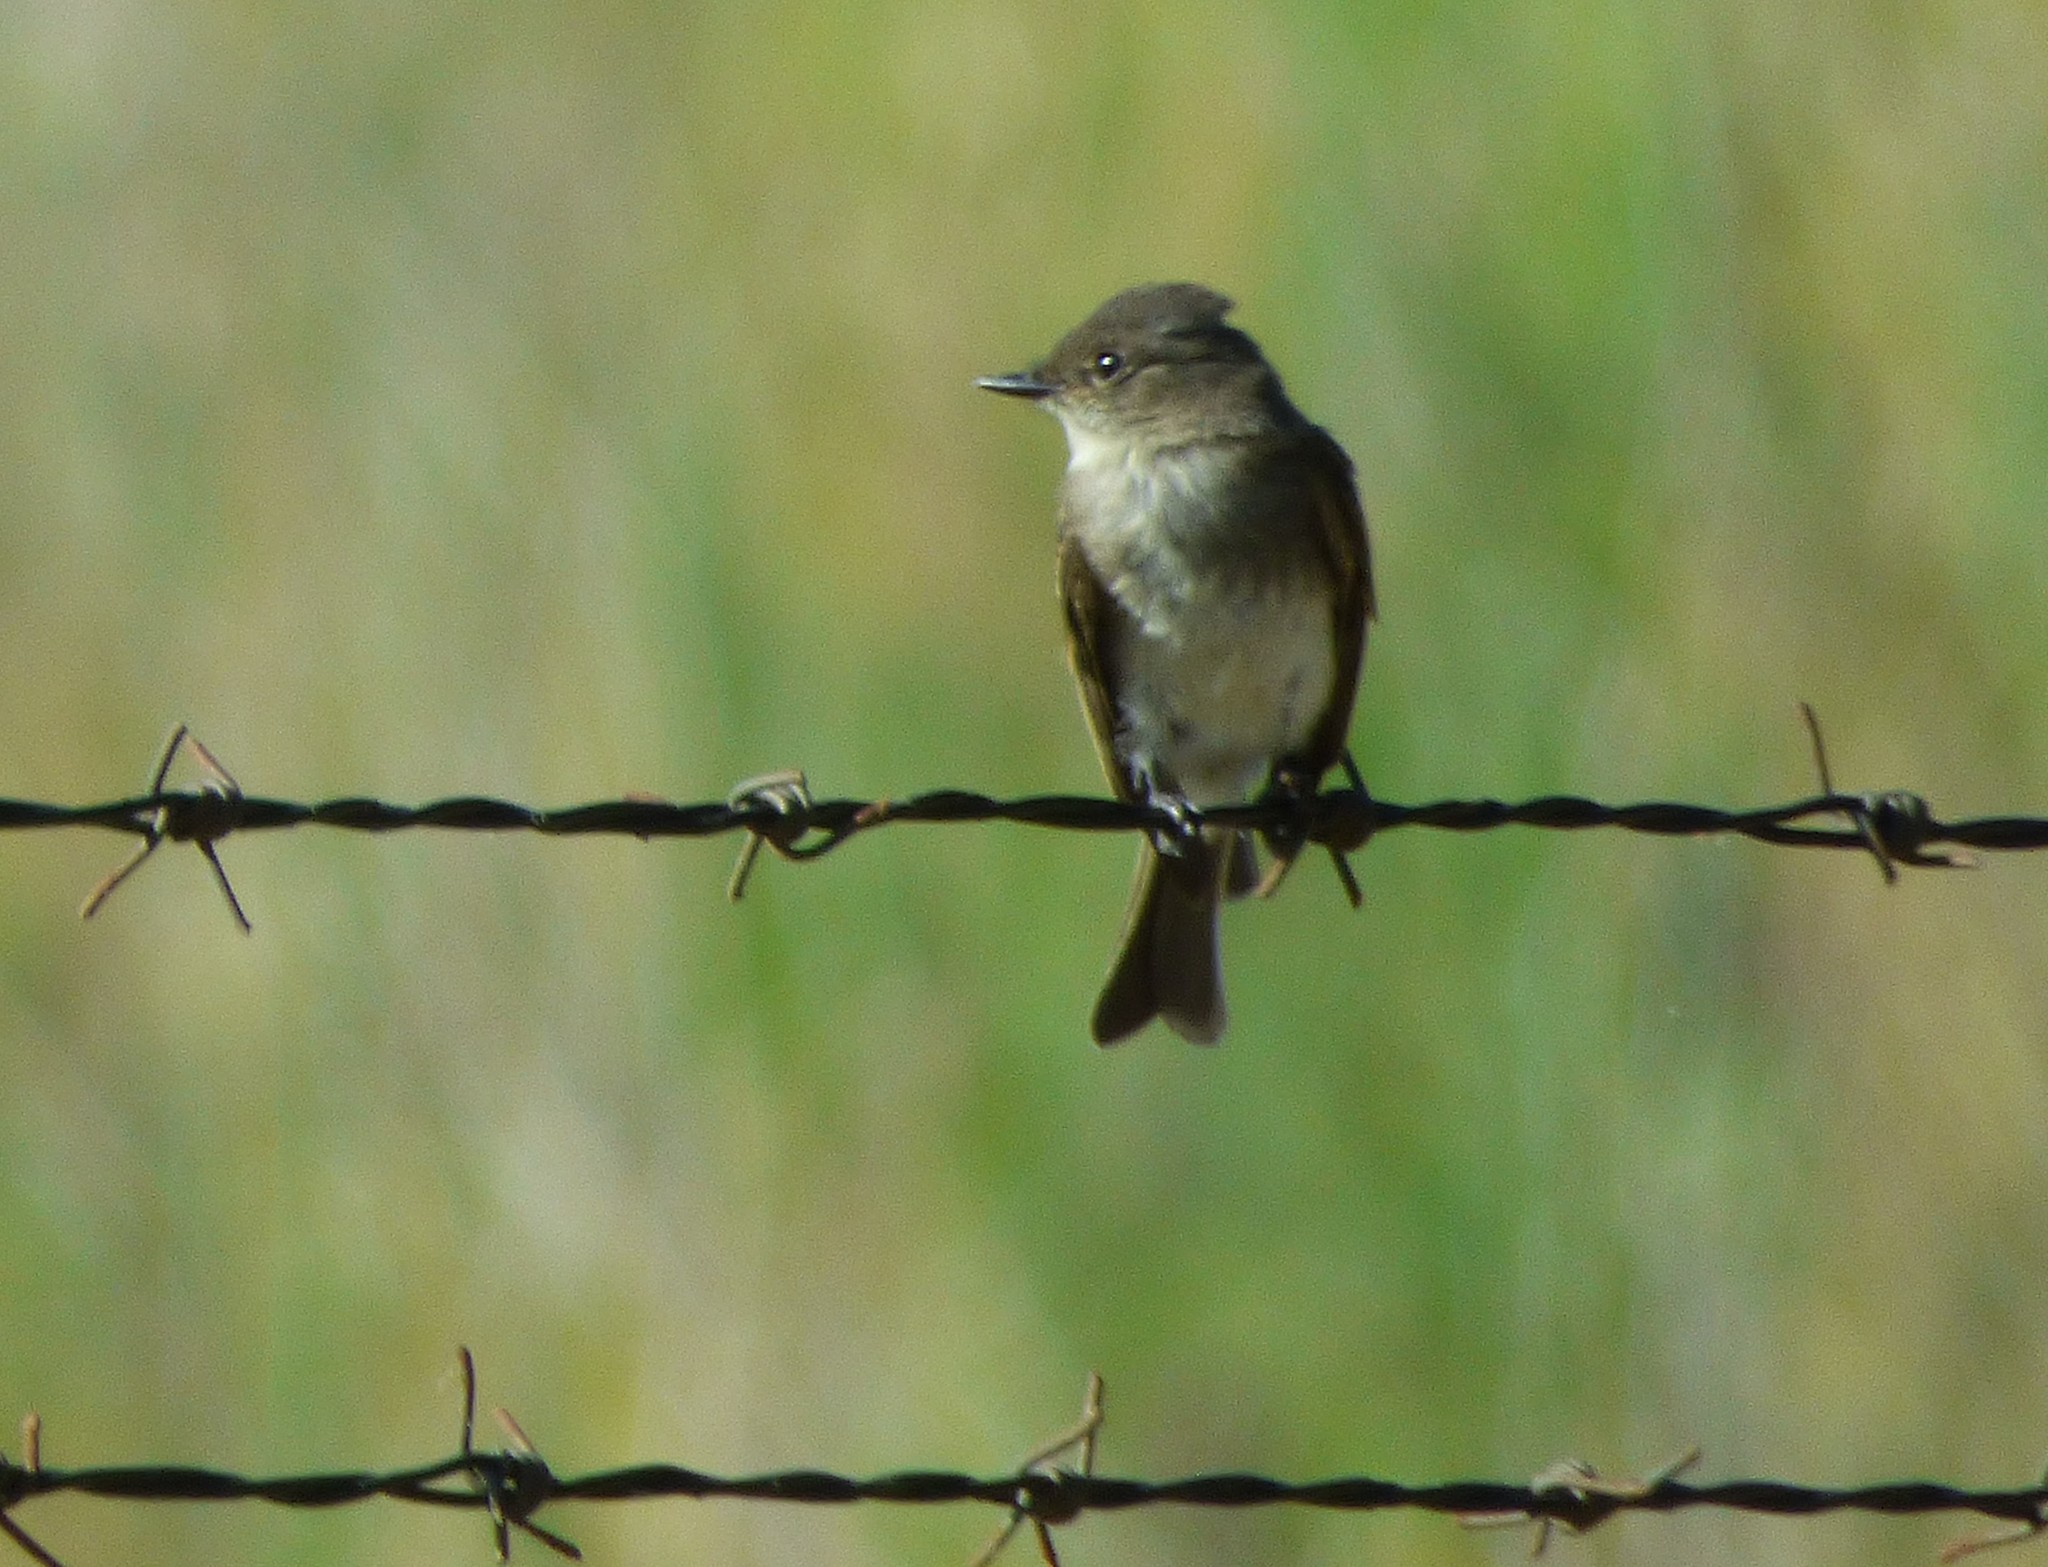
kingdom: Animalia
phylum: Chordata
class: Aves
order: Passeriformes
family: Tyrannidae
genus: Sayornis
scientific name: Sayornis phoebe
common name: Eastern phoebe
